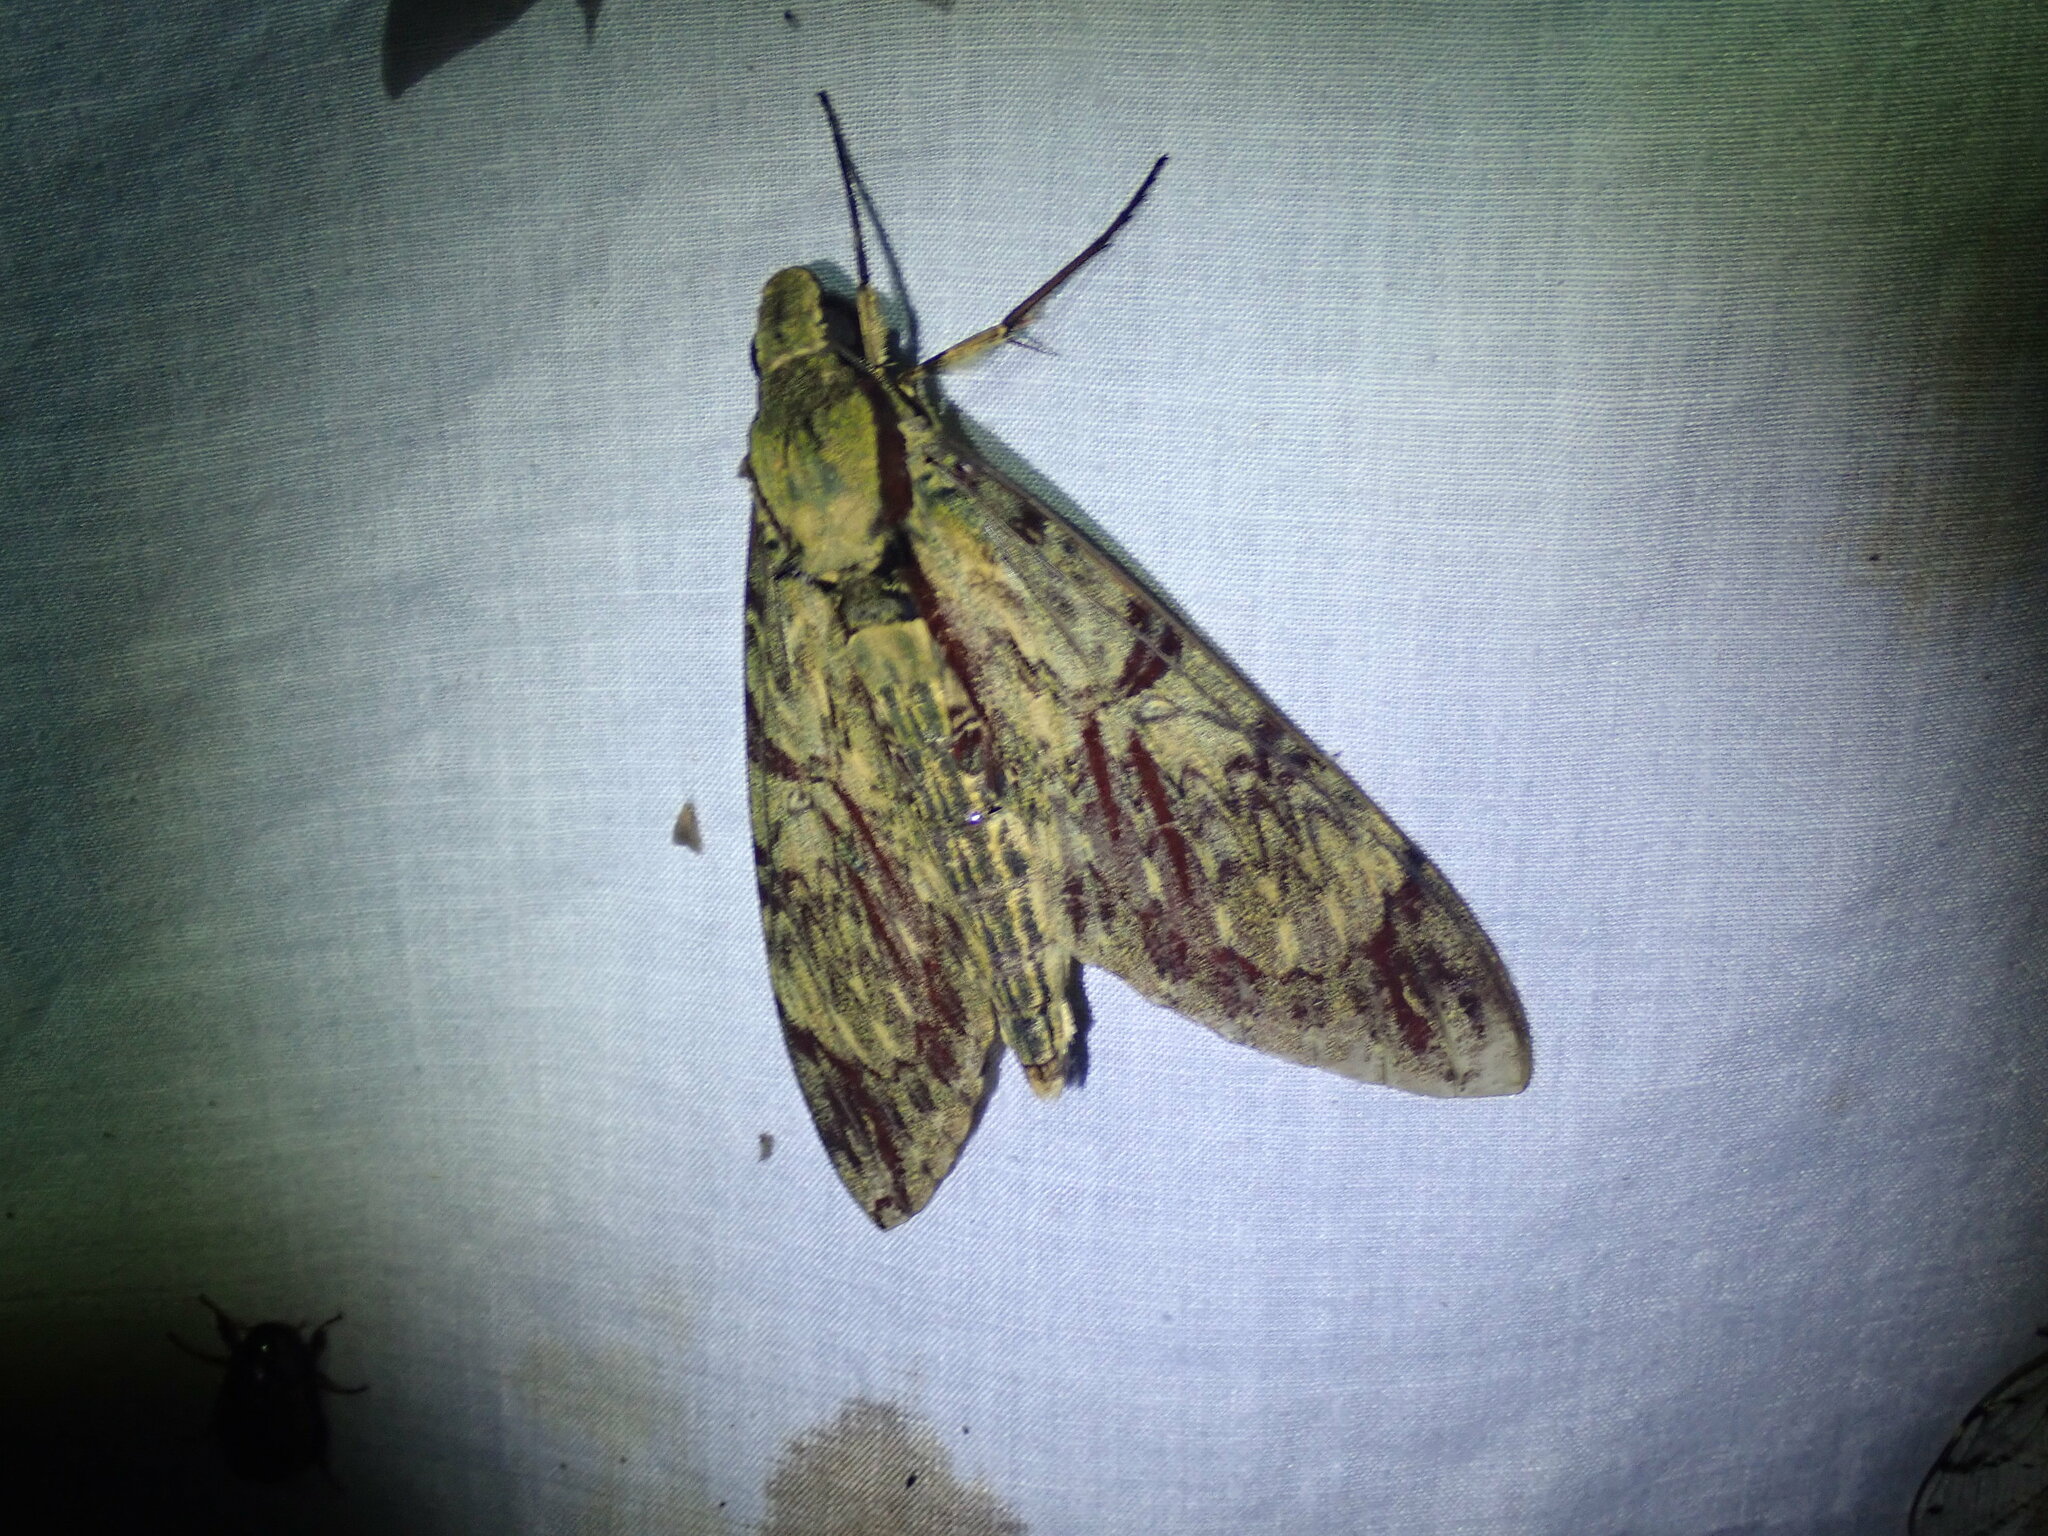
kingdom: Animalia
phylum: Arthropoda
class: Insecta
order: Lepidoptera
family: Sphingidae
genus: Amphimoea
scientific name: Amphimoea walkeri
